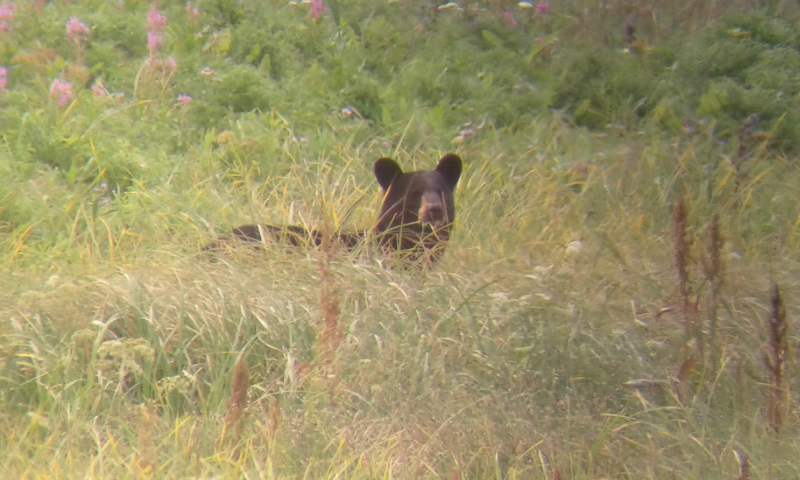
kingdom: Animalia
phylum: Chordata
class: Mammalia
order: Carnivora
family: Ursidae
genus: Ursus
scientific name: Ursus americanus
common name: American black bear
